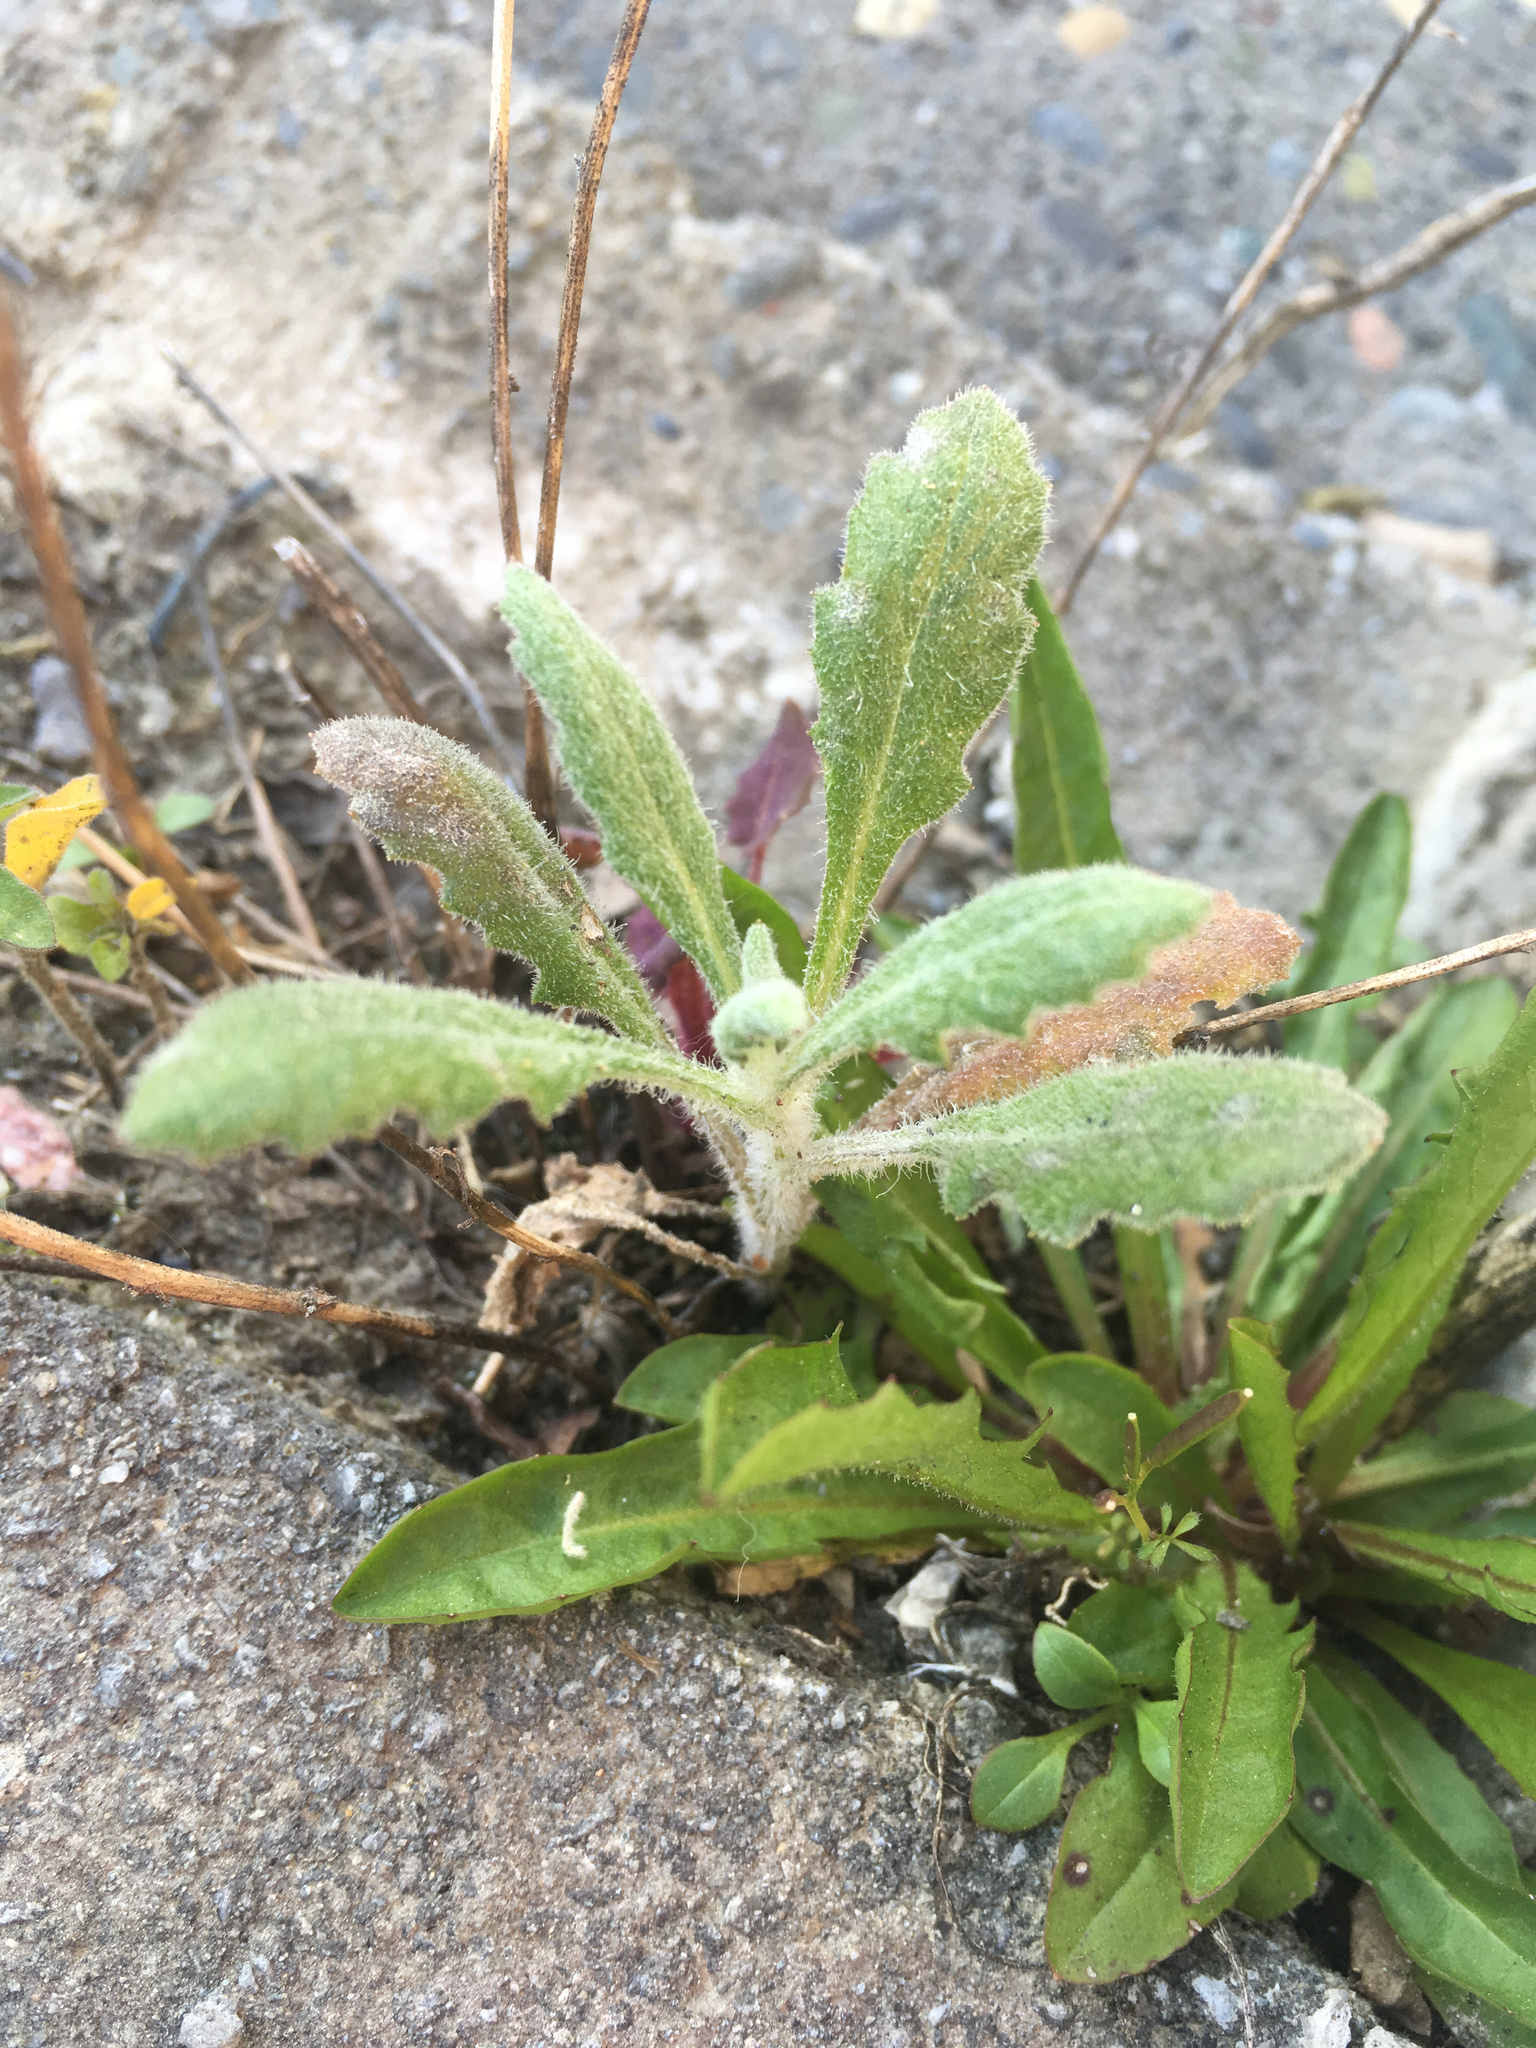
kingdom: Plantae
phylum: Tracheophyta
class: Magnoliopsida
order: Asterales
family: Asteraceae
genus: Senecio
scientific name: Senecio glomeratus
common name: Cutleaf burnweed
